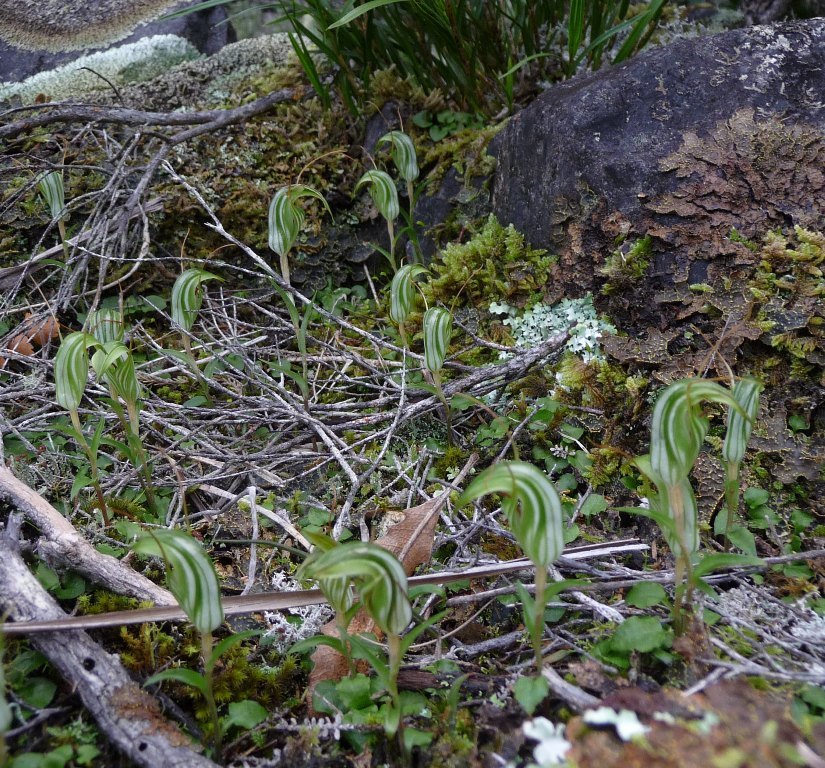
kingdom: Plantae
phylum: Tracheophyta
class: Liliopsida
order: Asparagales
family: Orchidaceae
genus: Pterostylis
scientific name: Pterostylis alobula
